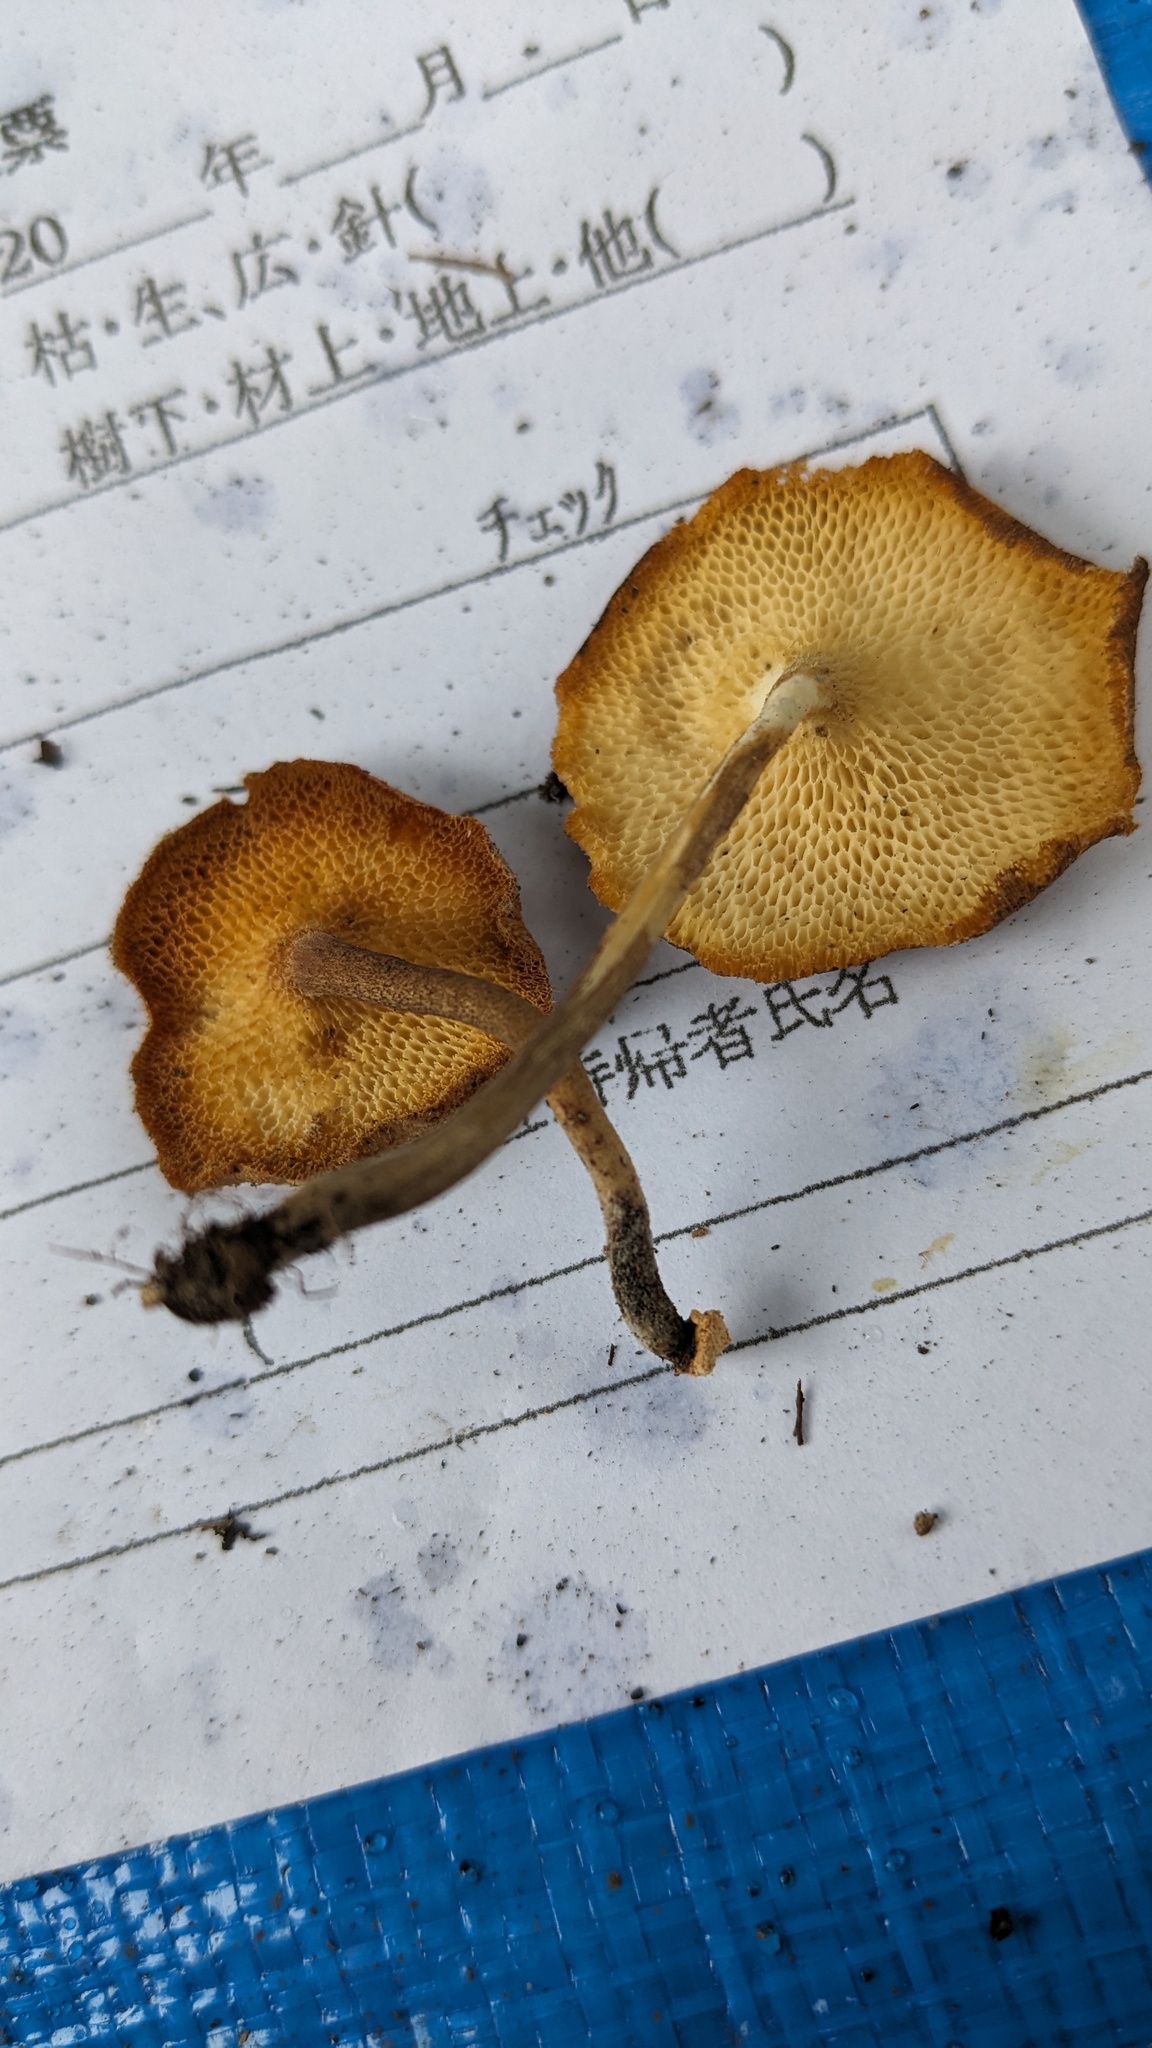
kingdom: Fungi
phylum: Basidiomycota
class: Agaricomycetes
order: Polyporales
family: Polyporaceae
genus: Lentinus
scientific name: Lentinus arcularius
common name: Spring polypore
